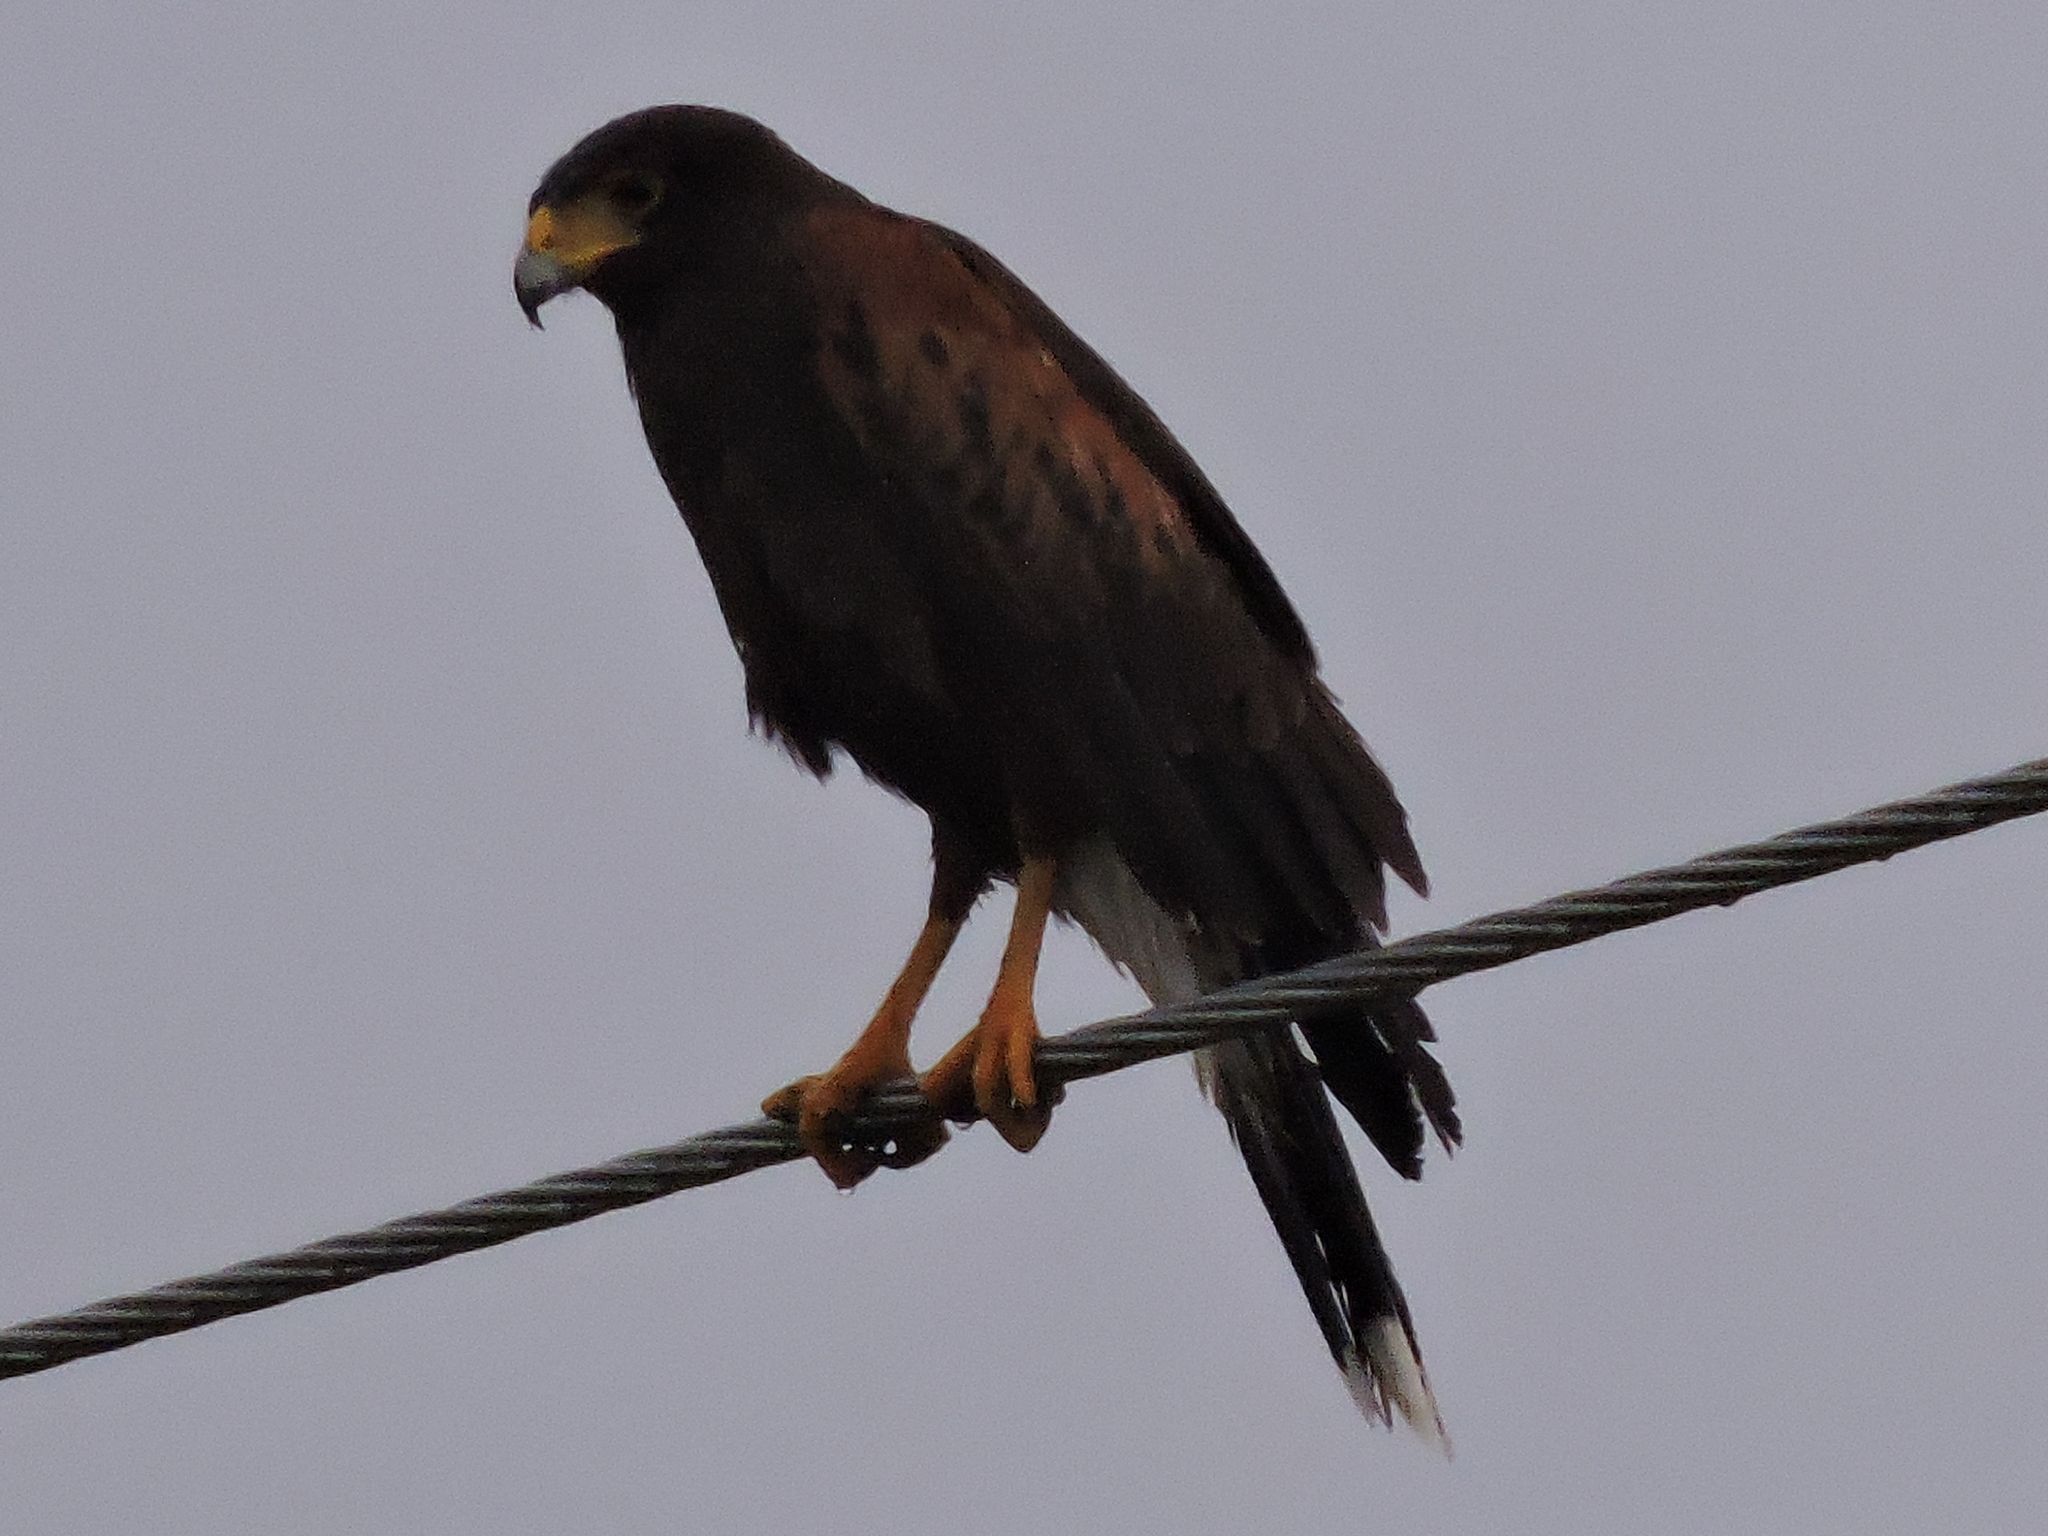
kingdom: Animalia
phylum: Chordata
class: Aves
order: Accipitriformes
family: Accipitridae
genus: Parabuteo
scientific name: Parabuteo unicinctus
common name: Harris's hawk
